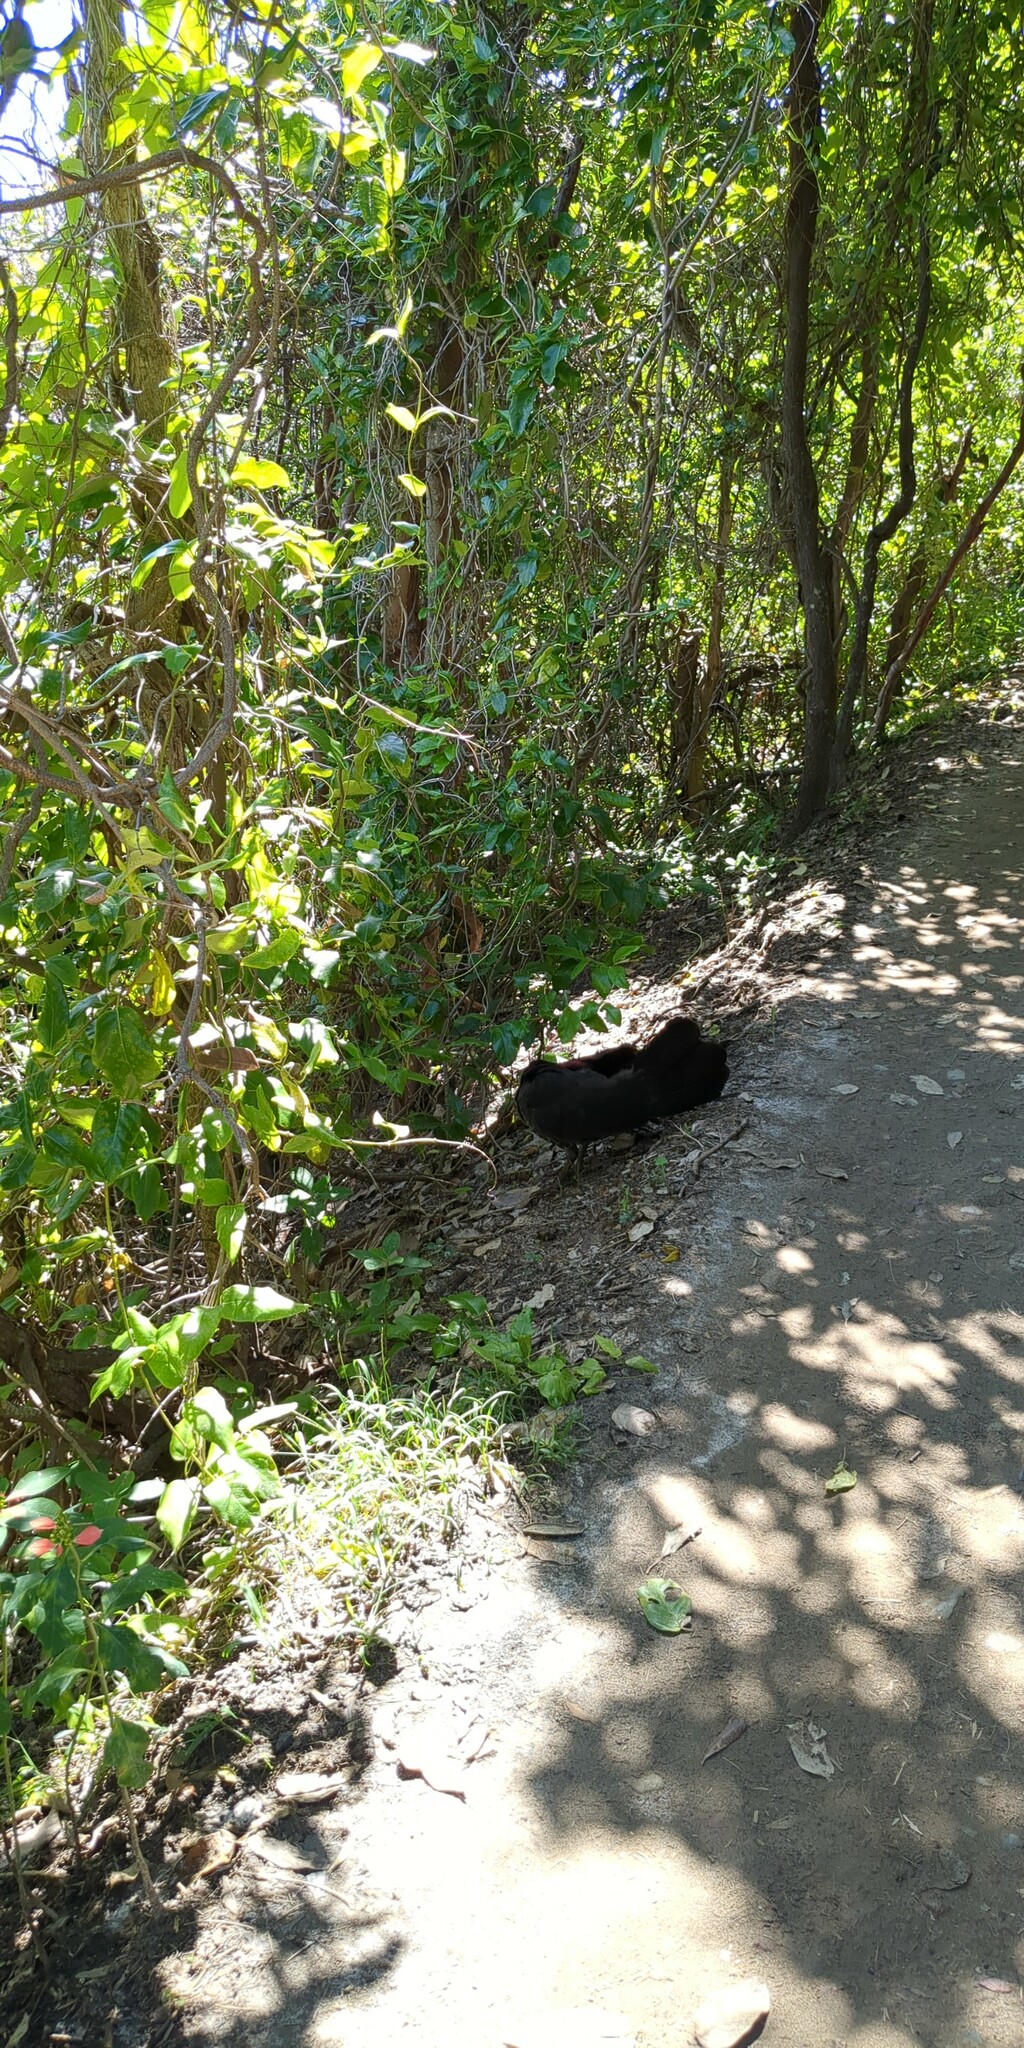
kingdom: Animalia
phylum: Chordata
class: Aves
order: Galliformes
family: Megapodiidae
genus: Alectura
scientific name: Alectura lathami
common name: Australian brushturkey
